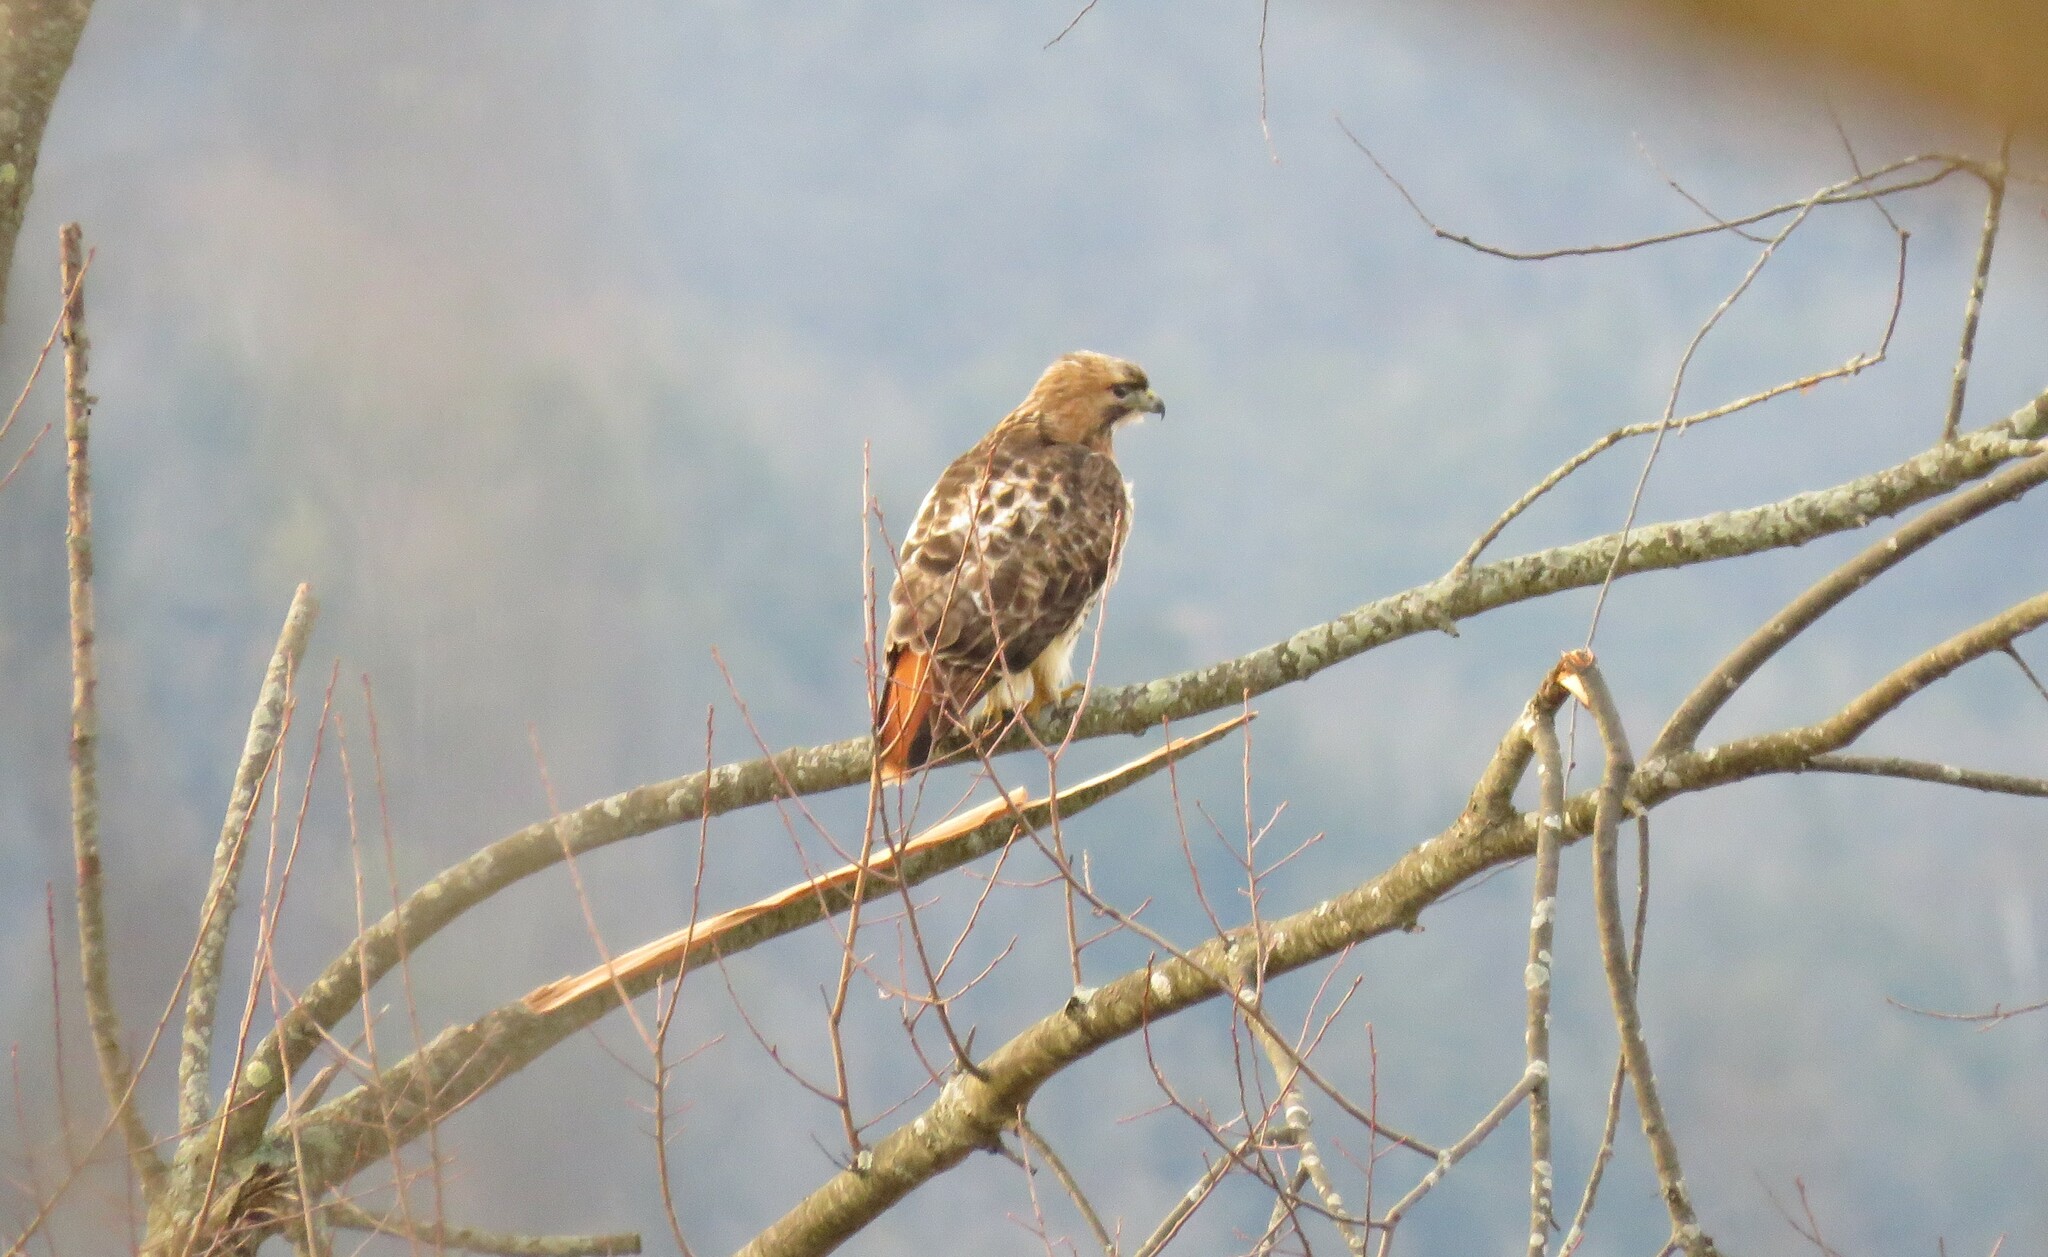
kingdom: Animalia
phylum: Chordata
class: Aves
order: Accipitriformes
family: Accipitridae
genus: Buteo
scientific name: Buteo jamaicensis
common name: Red-tailed hawk
